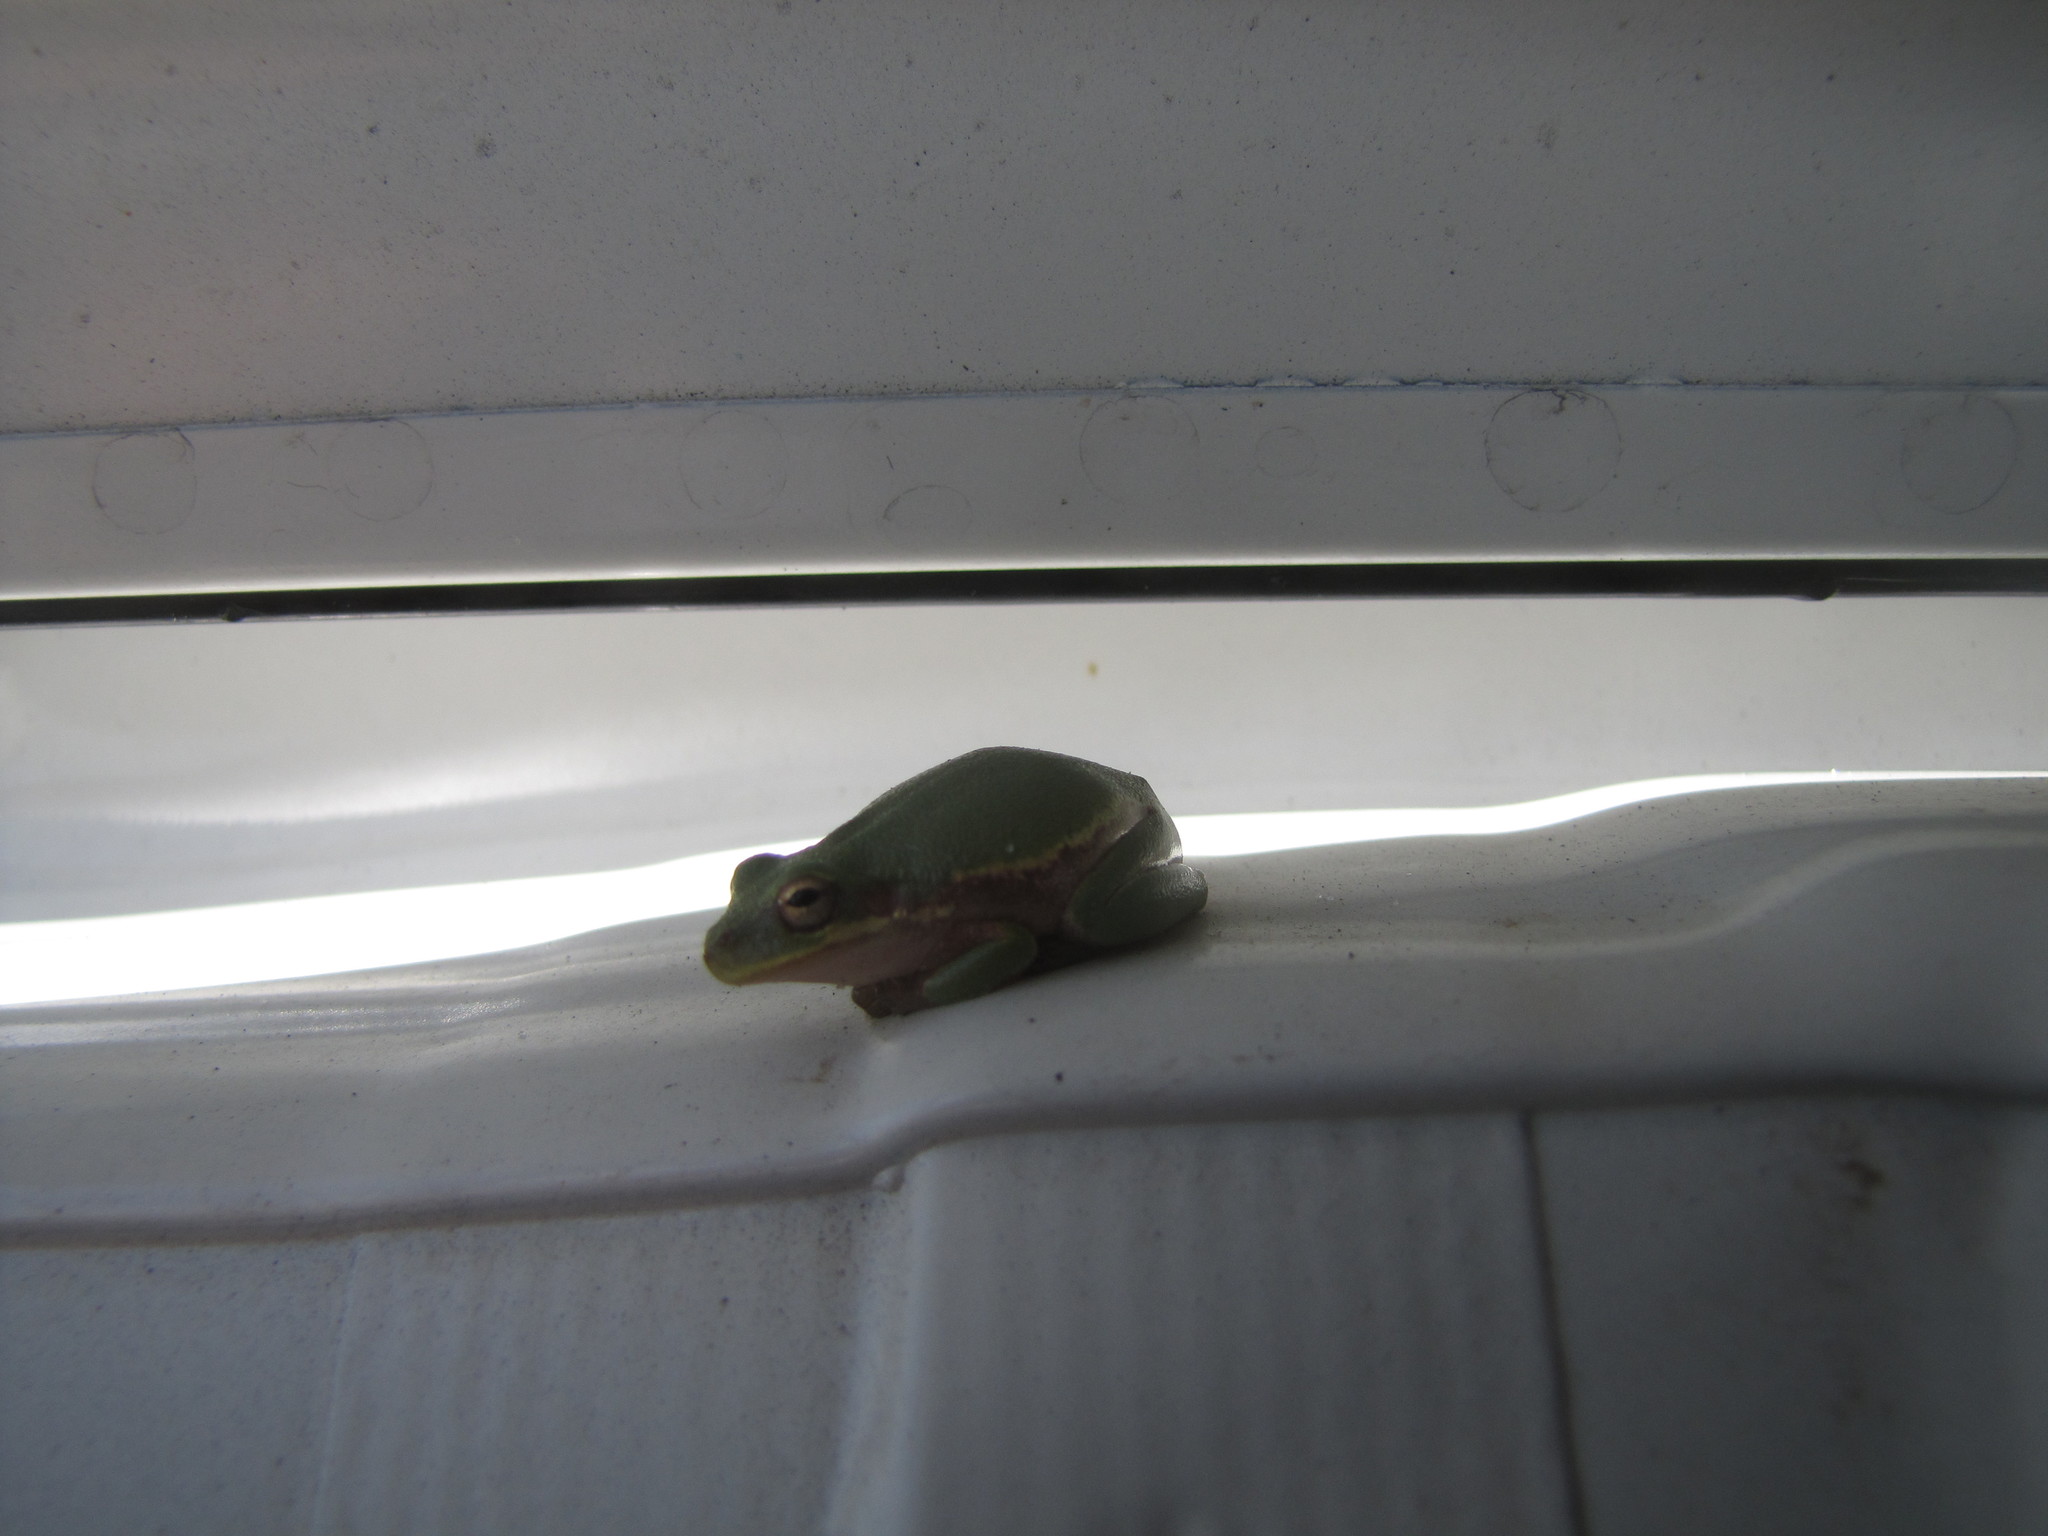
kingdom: Animalia
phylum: Chordata
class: Amphibia
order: Anura
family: Hylidae
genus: Dryophytes
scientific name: Dryophytes squirellus
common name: Squirrel treefrog
